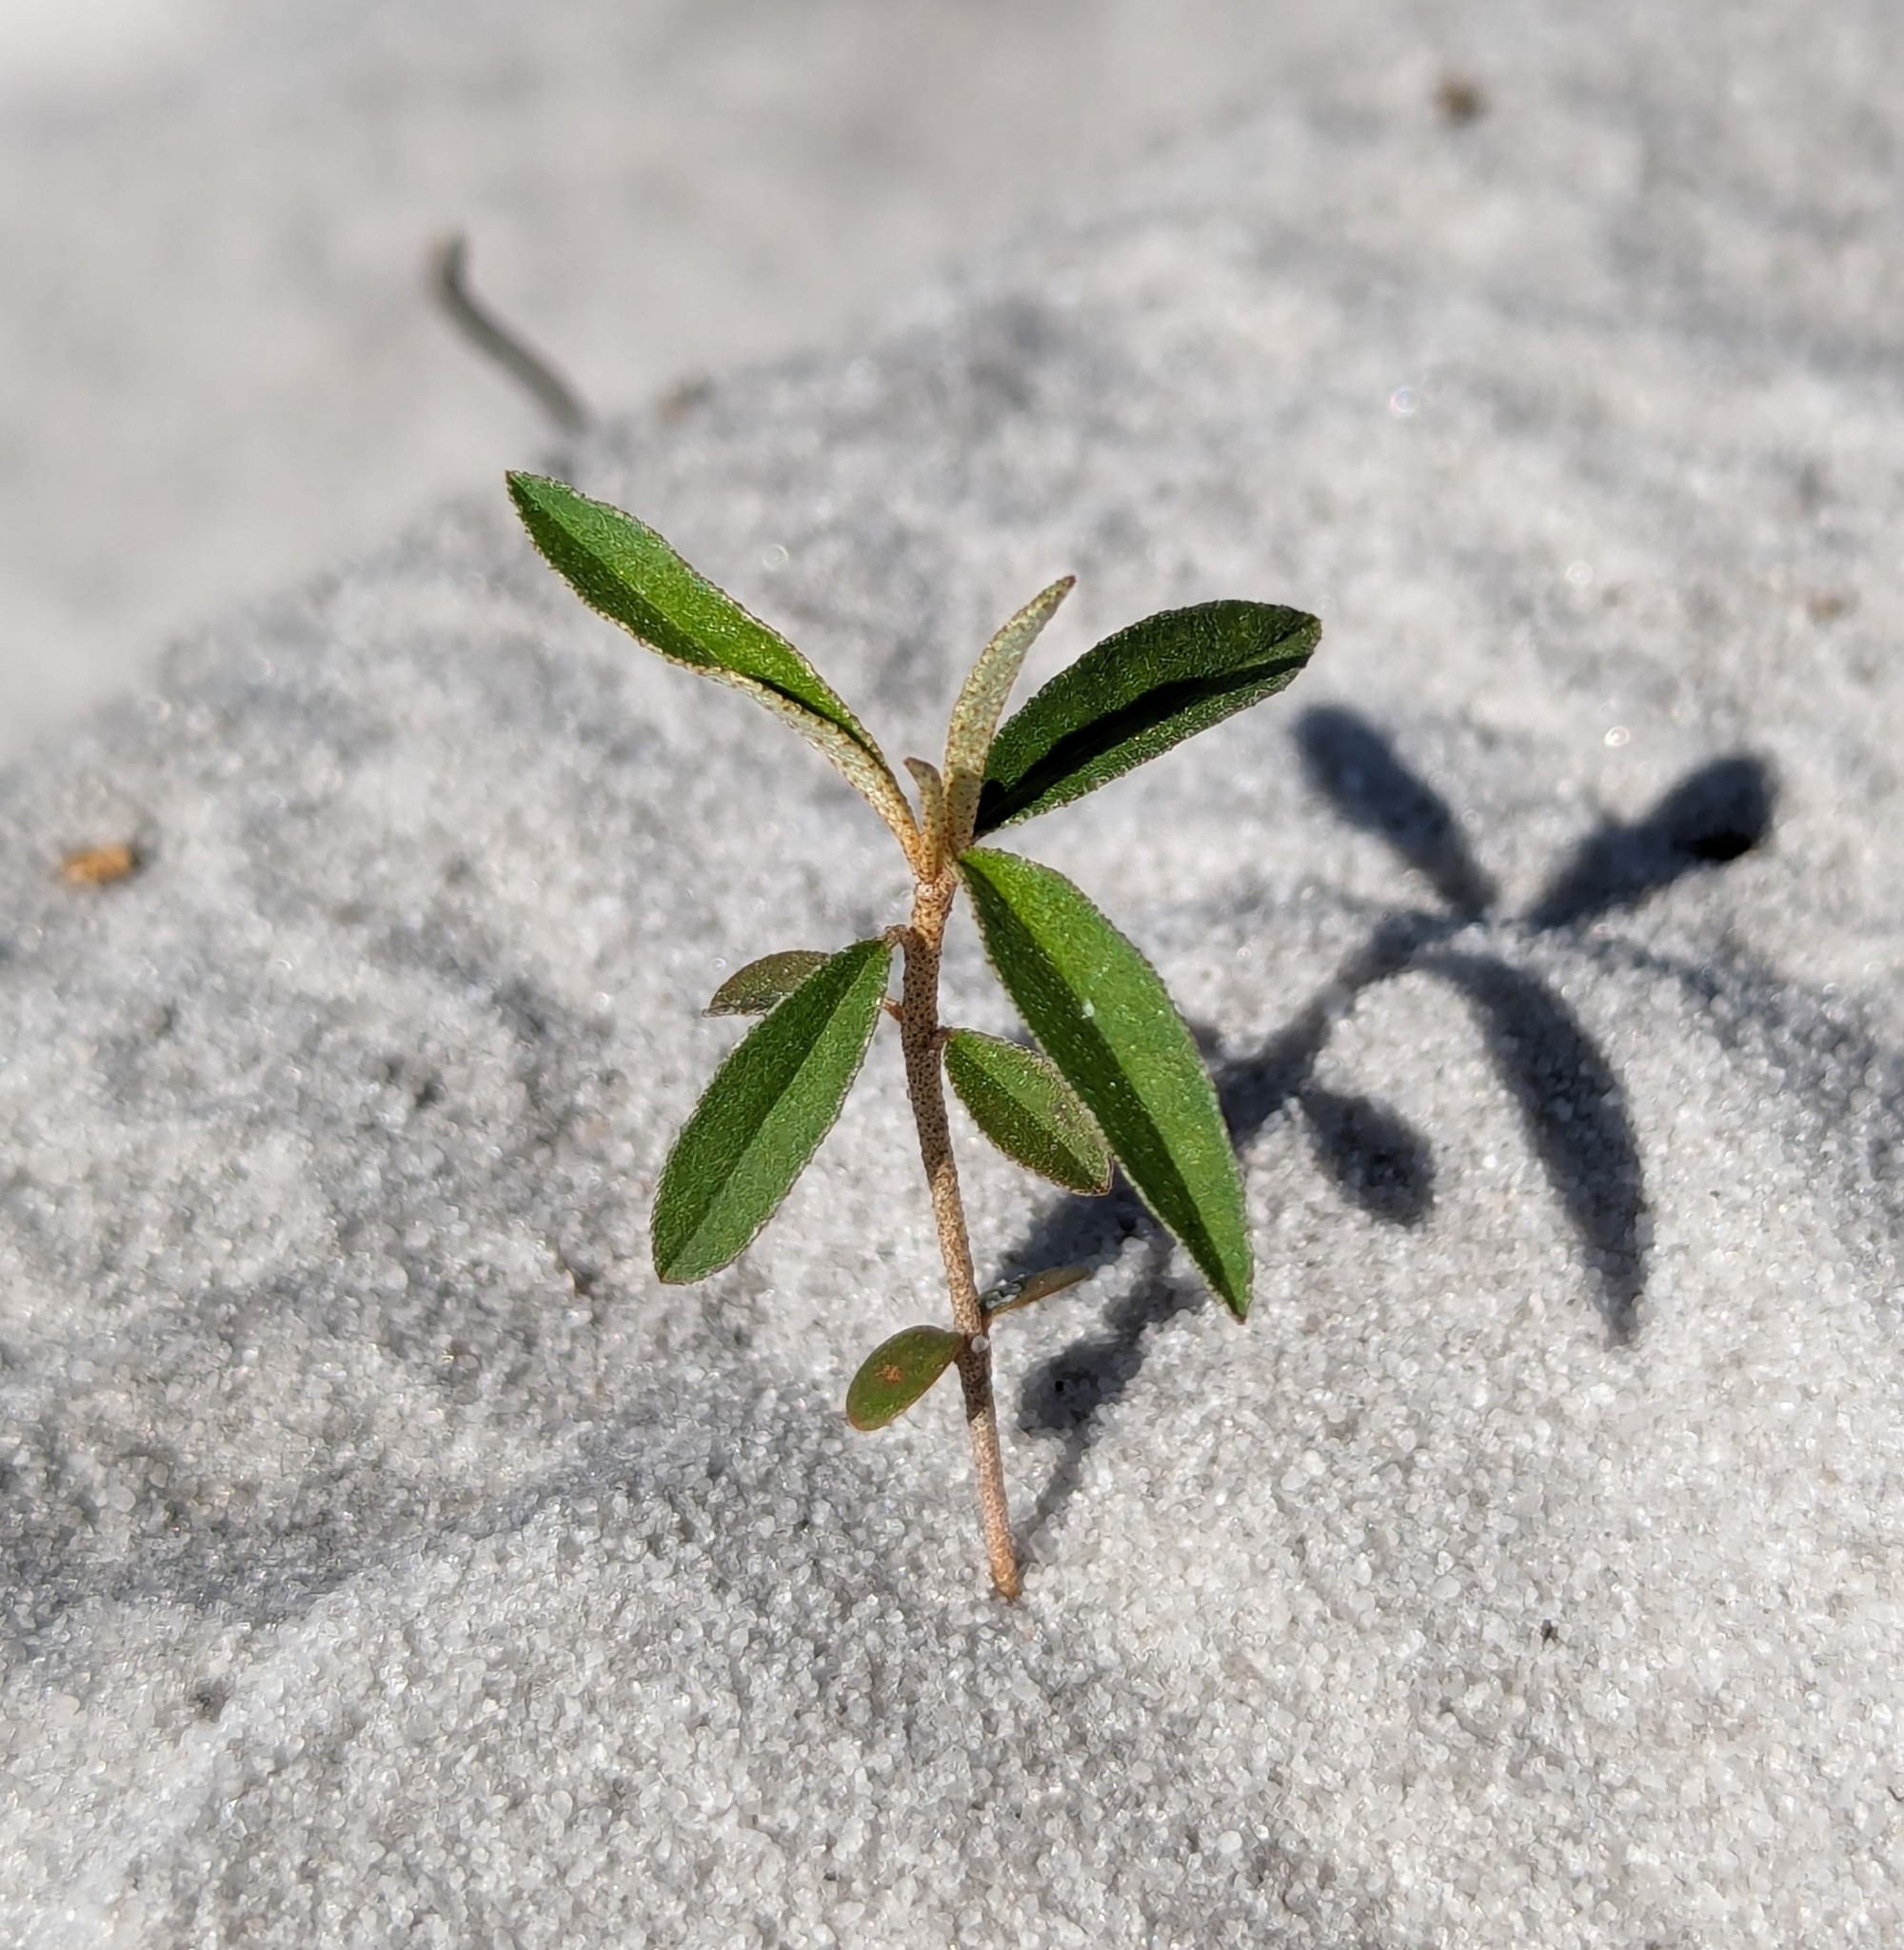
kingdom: Plantae
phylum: Tracheophyta
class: Magnoliopsida
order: Malpighiales
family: Euphorbiaceae
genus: Croton
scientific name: Croton michauxii
